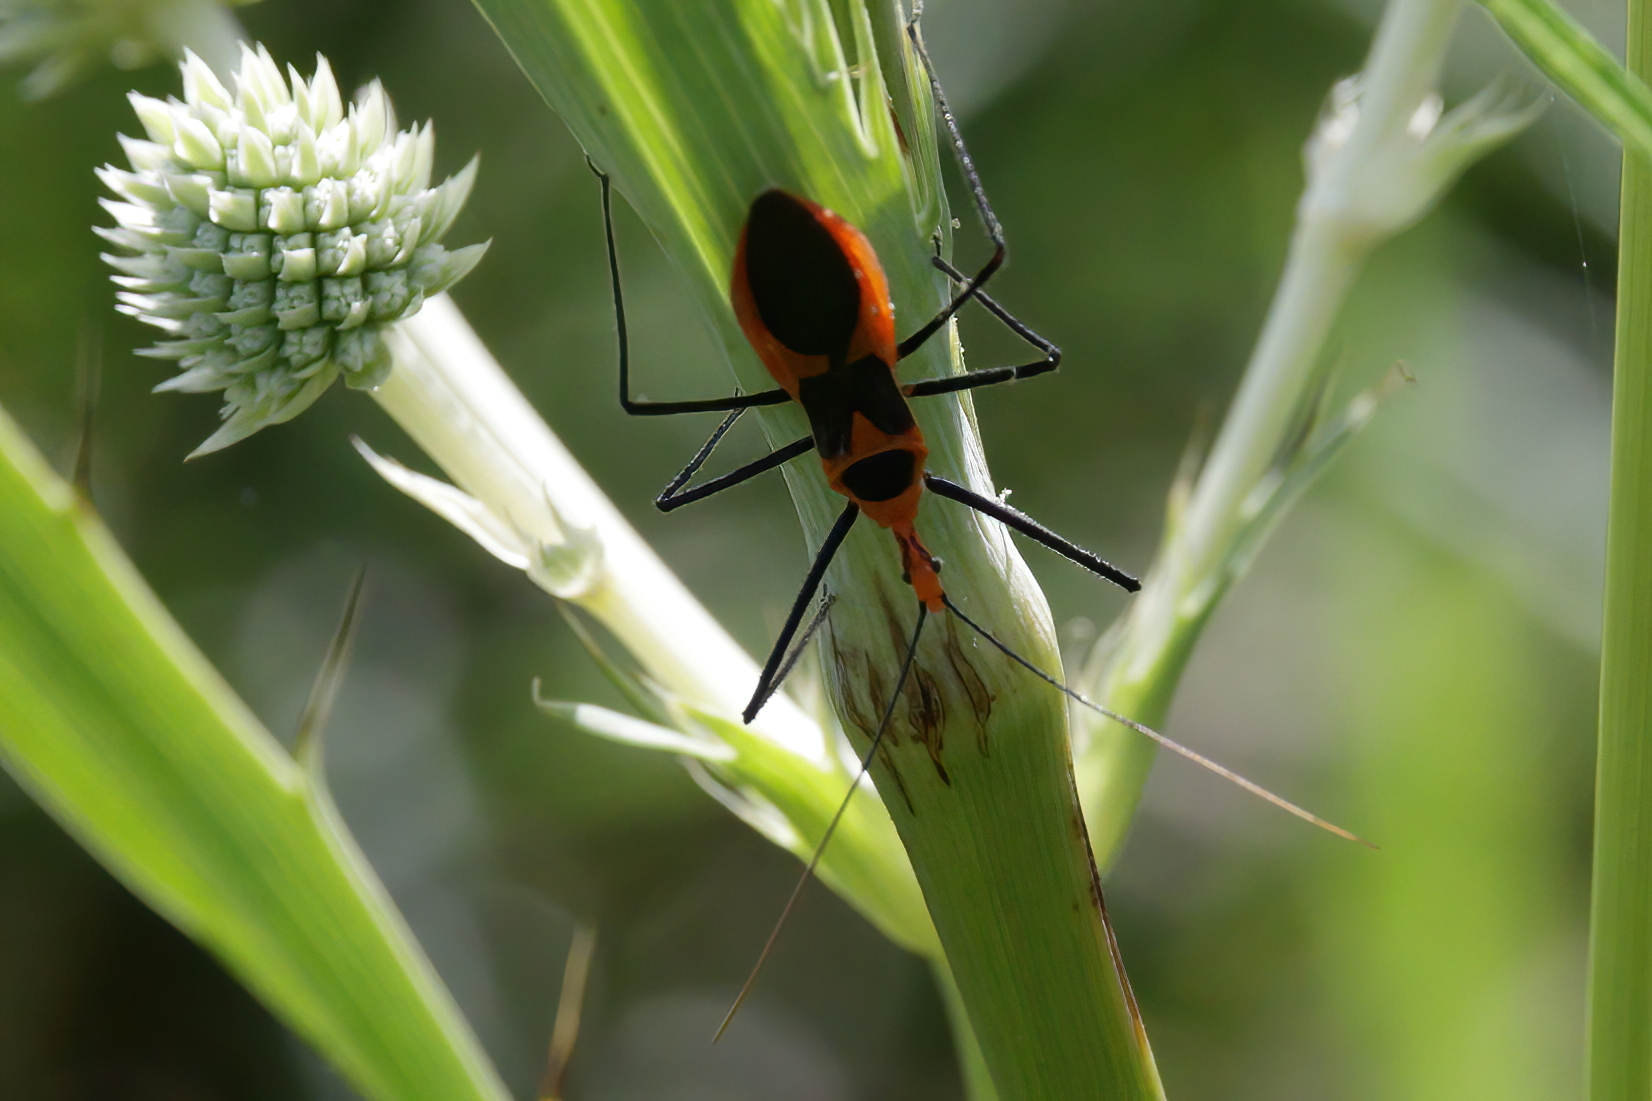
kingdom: Animalia
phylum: Arthropoda
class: Insecta
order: Hemiptera
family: Reduviidae
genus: Zelus
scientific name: Zelus longipes
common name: Milkweed assassin bug
